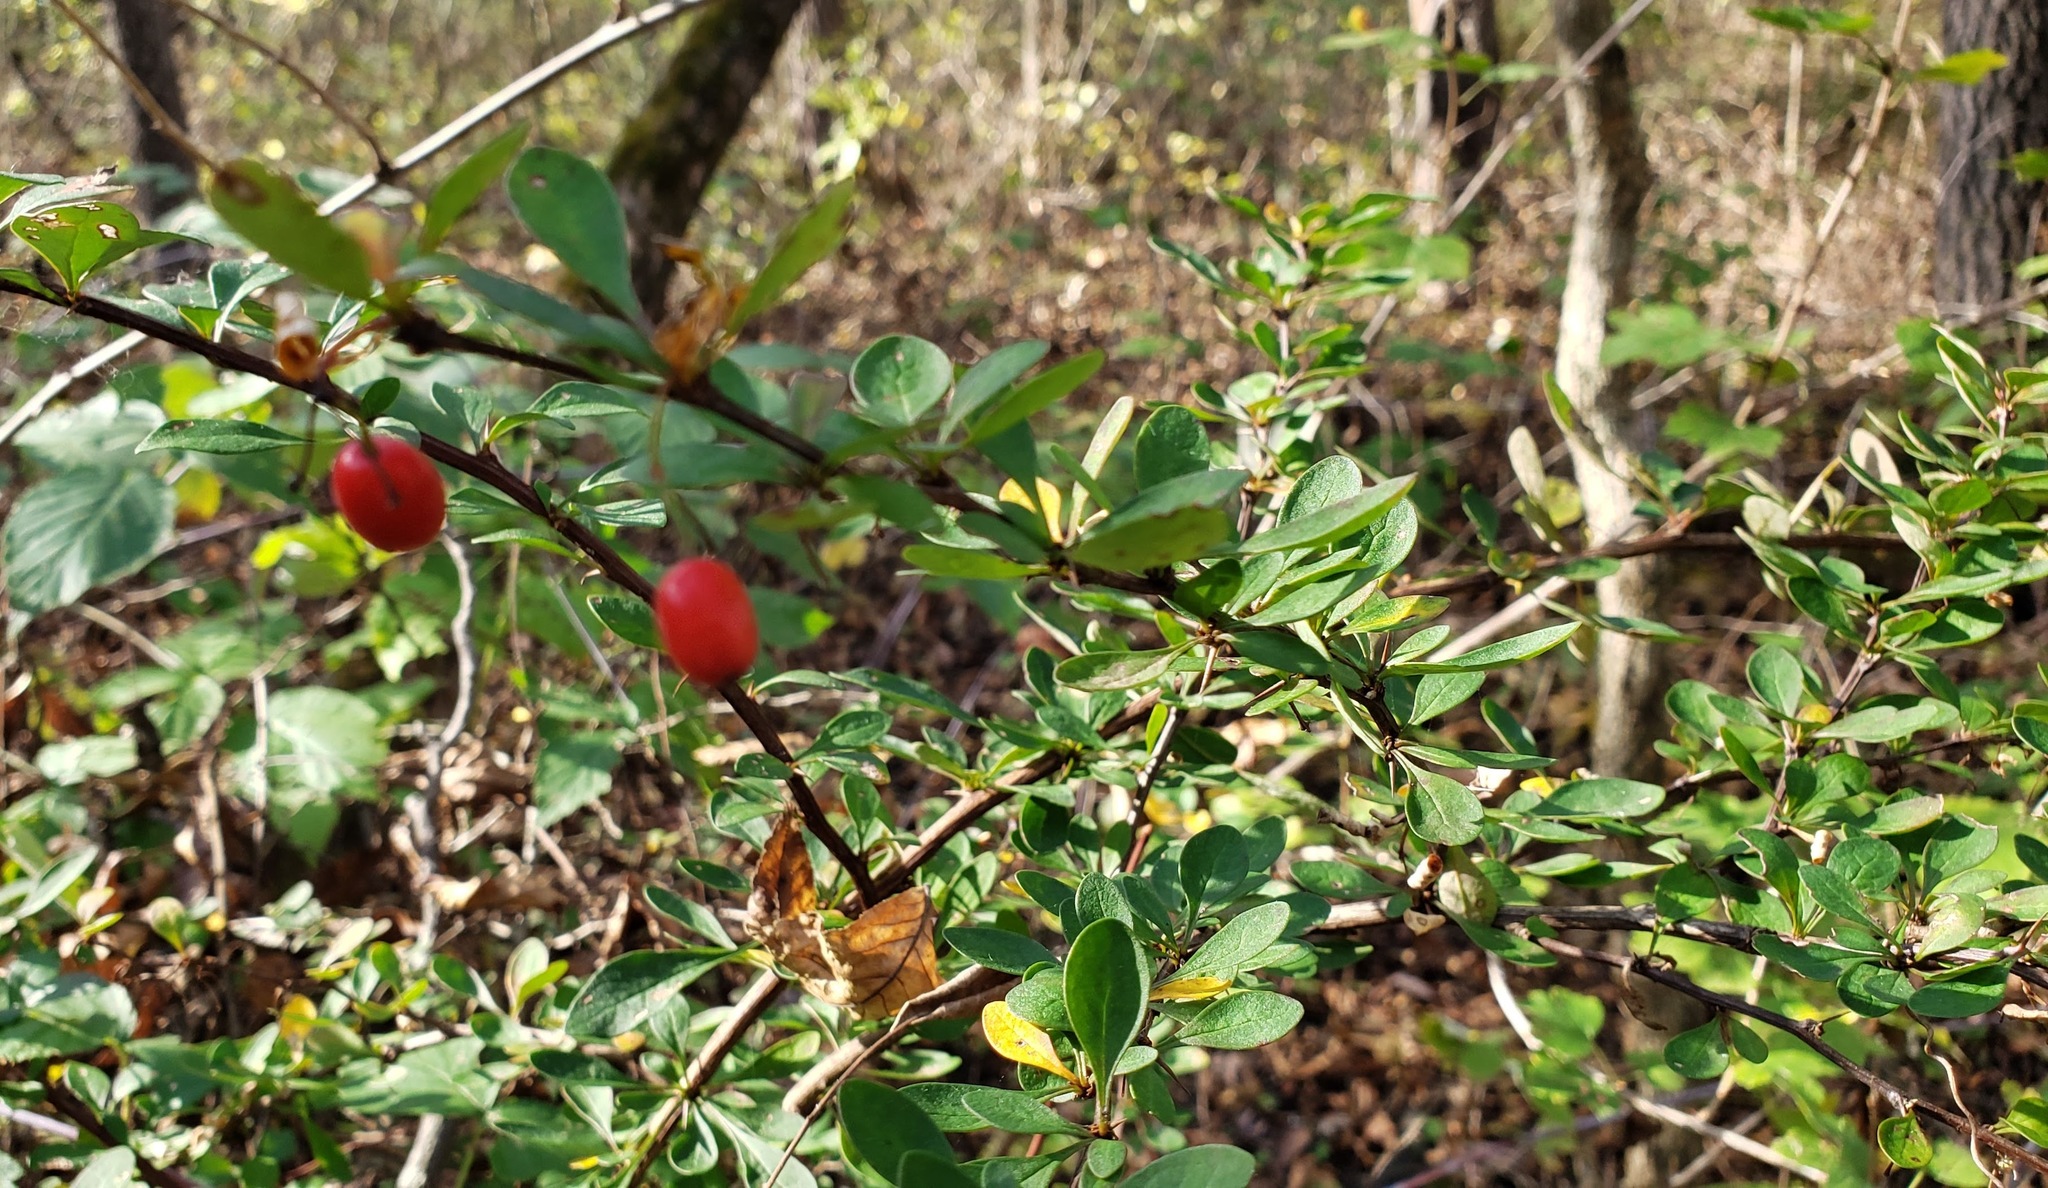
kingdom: Plantae
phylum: Tracheophyta
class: Magnoliopsida
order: Ranunculales
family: Berberidaceae
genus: Berberis
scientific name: Berberis thunbergii
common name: Japanese barberry
